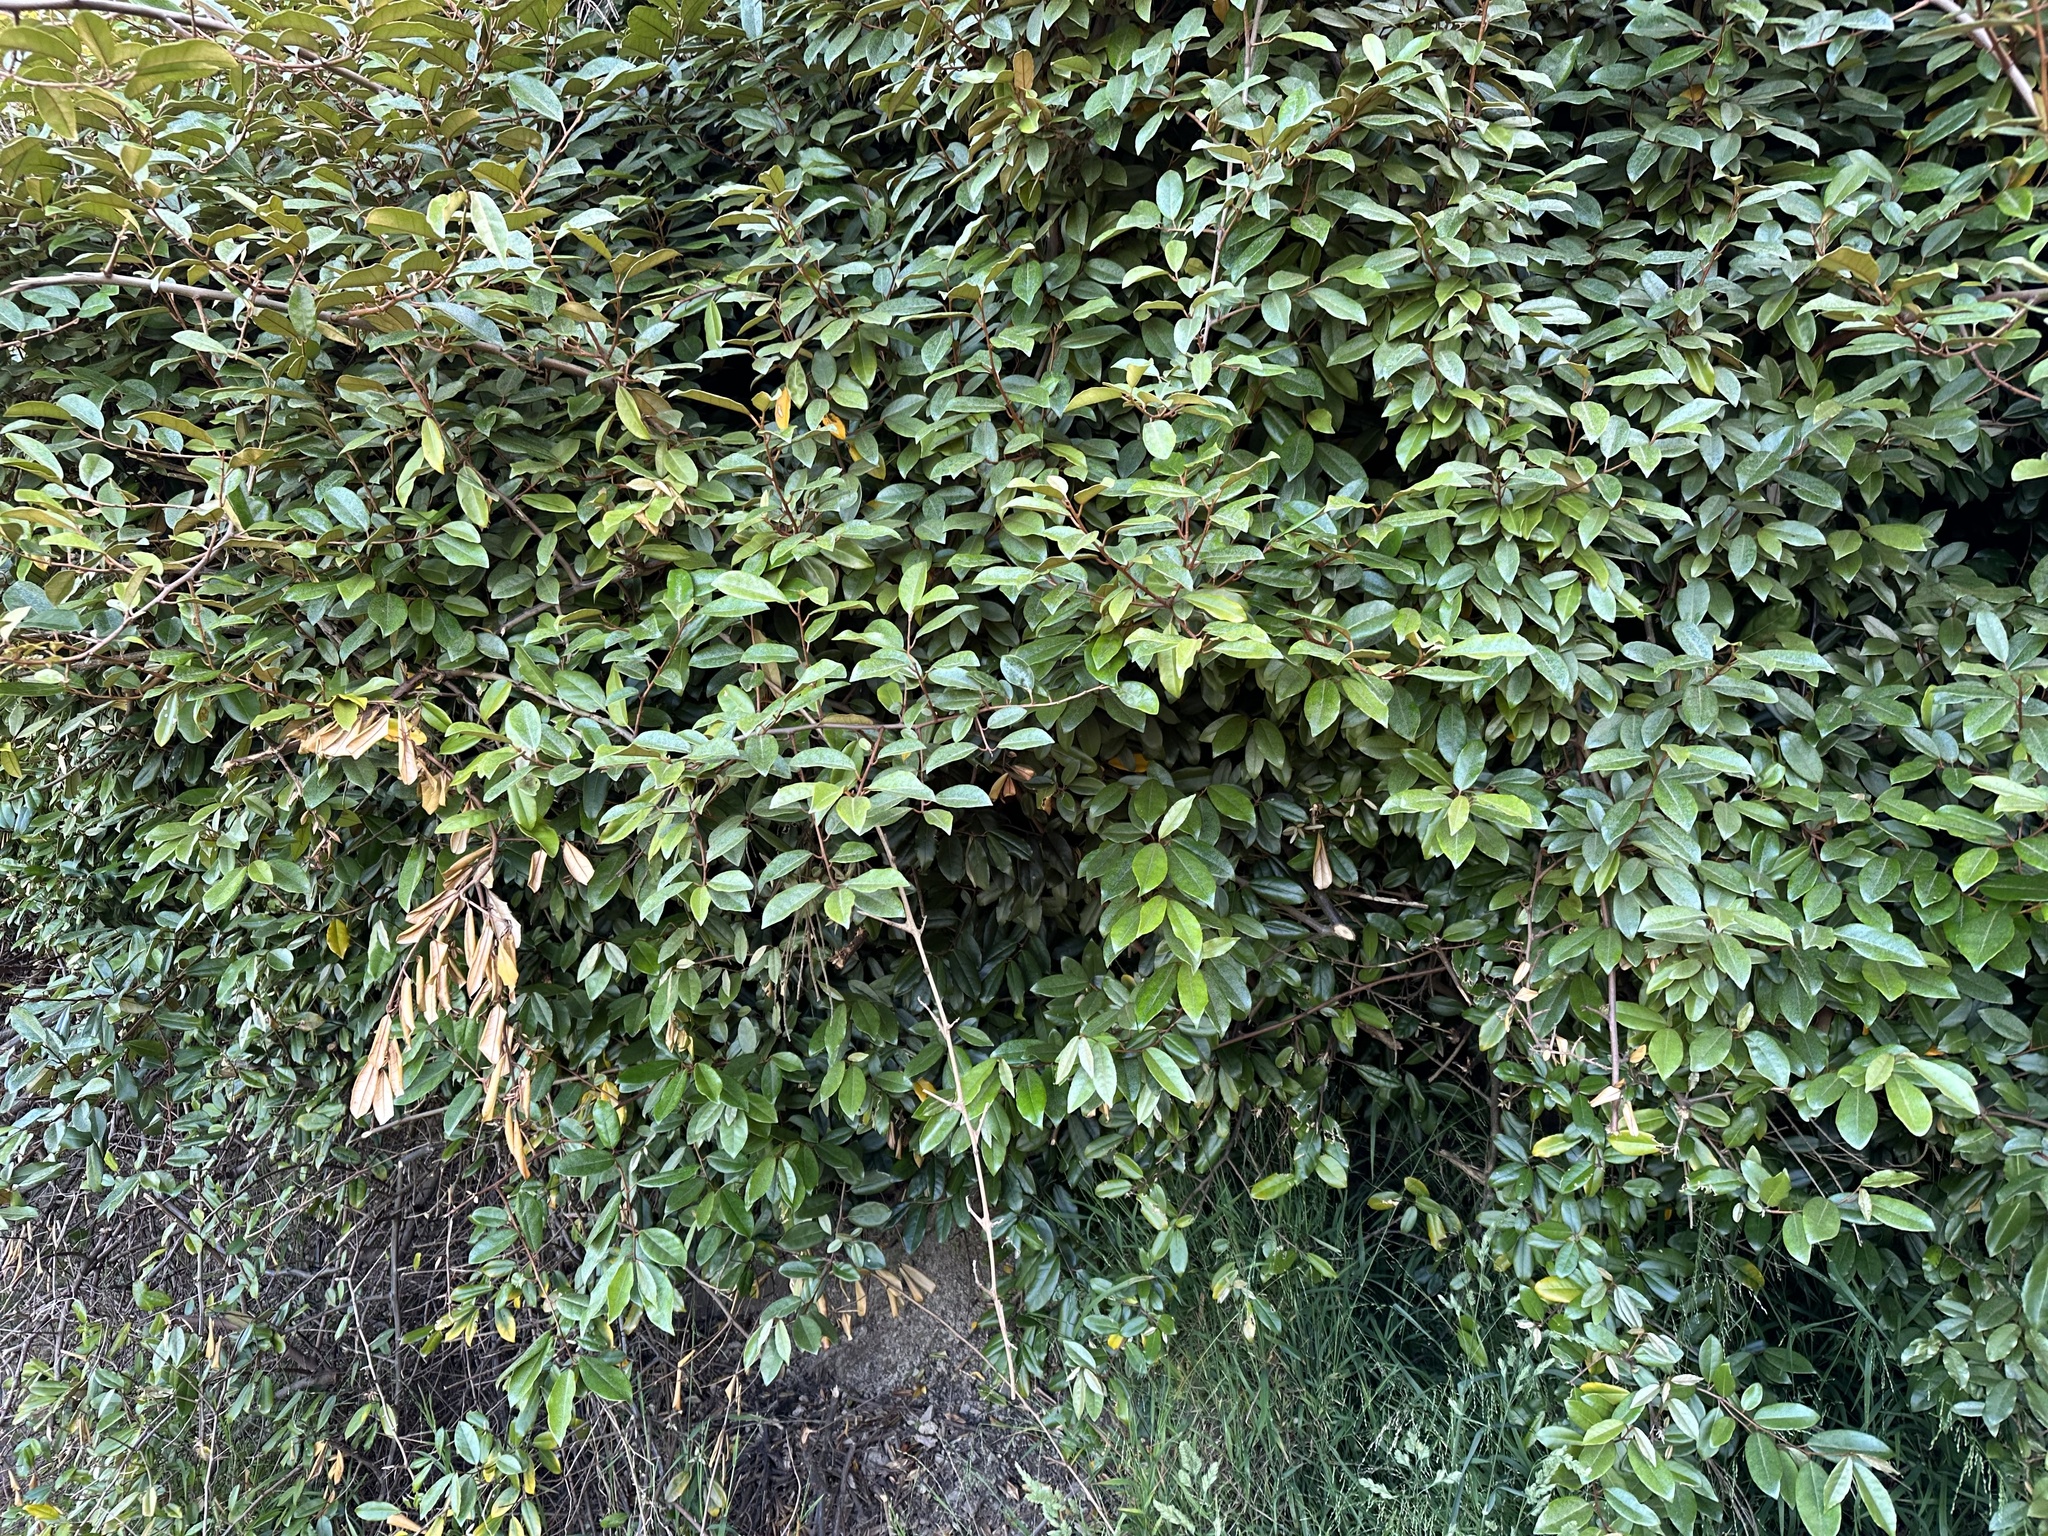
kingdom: Plantae
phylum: Tracheophyta
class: Magnoliopsida
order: Rosales
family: Elaeagnaceae
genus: Elaeagnus
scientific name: Elaeagnus reflexa
